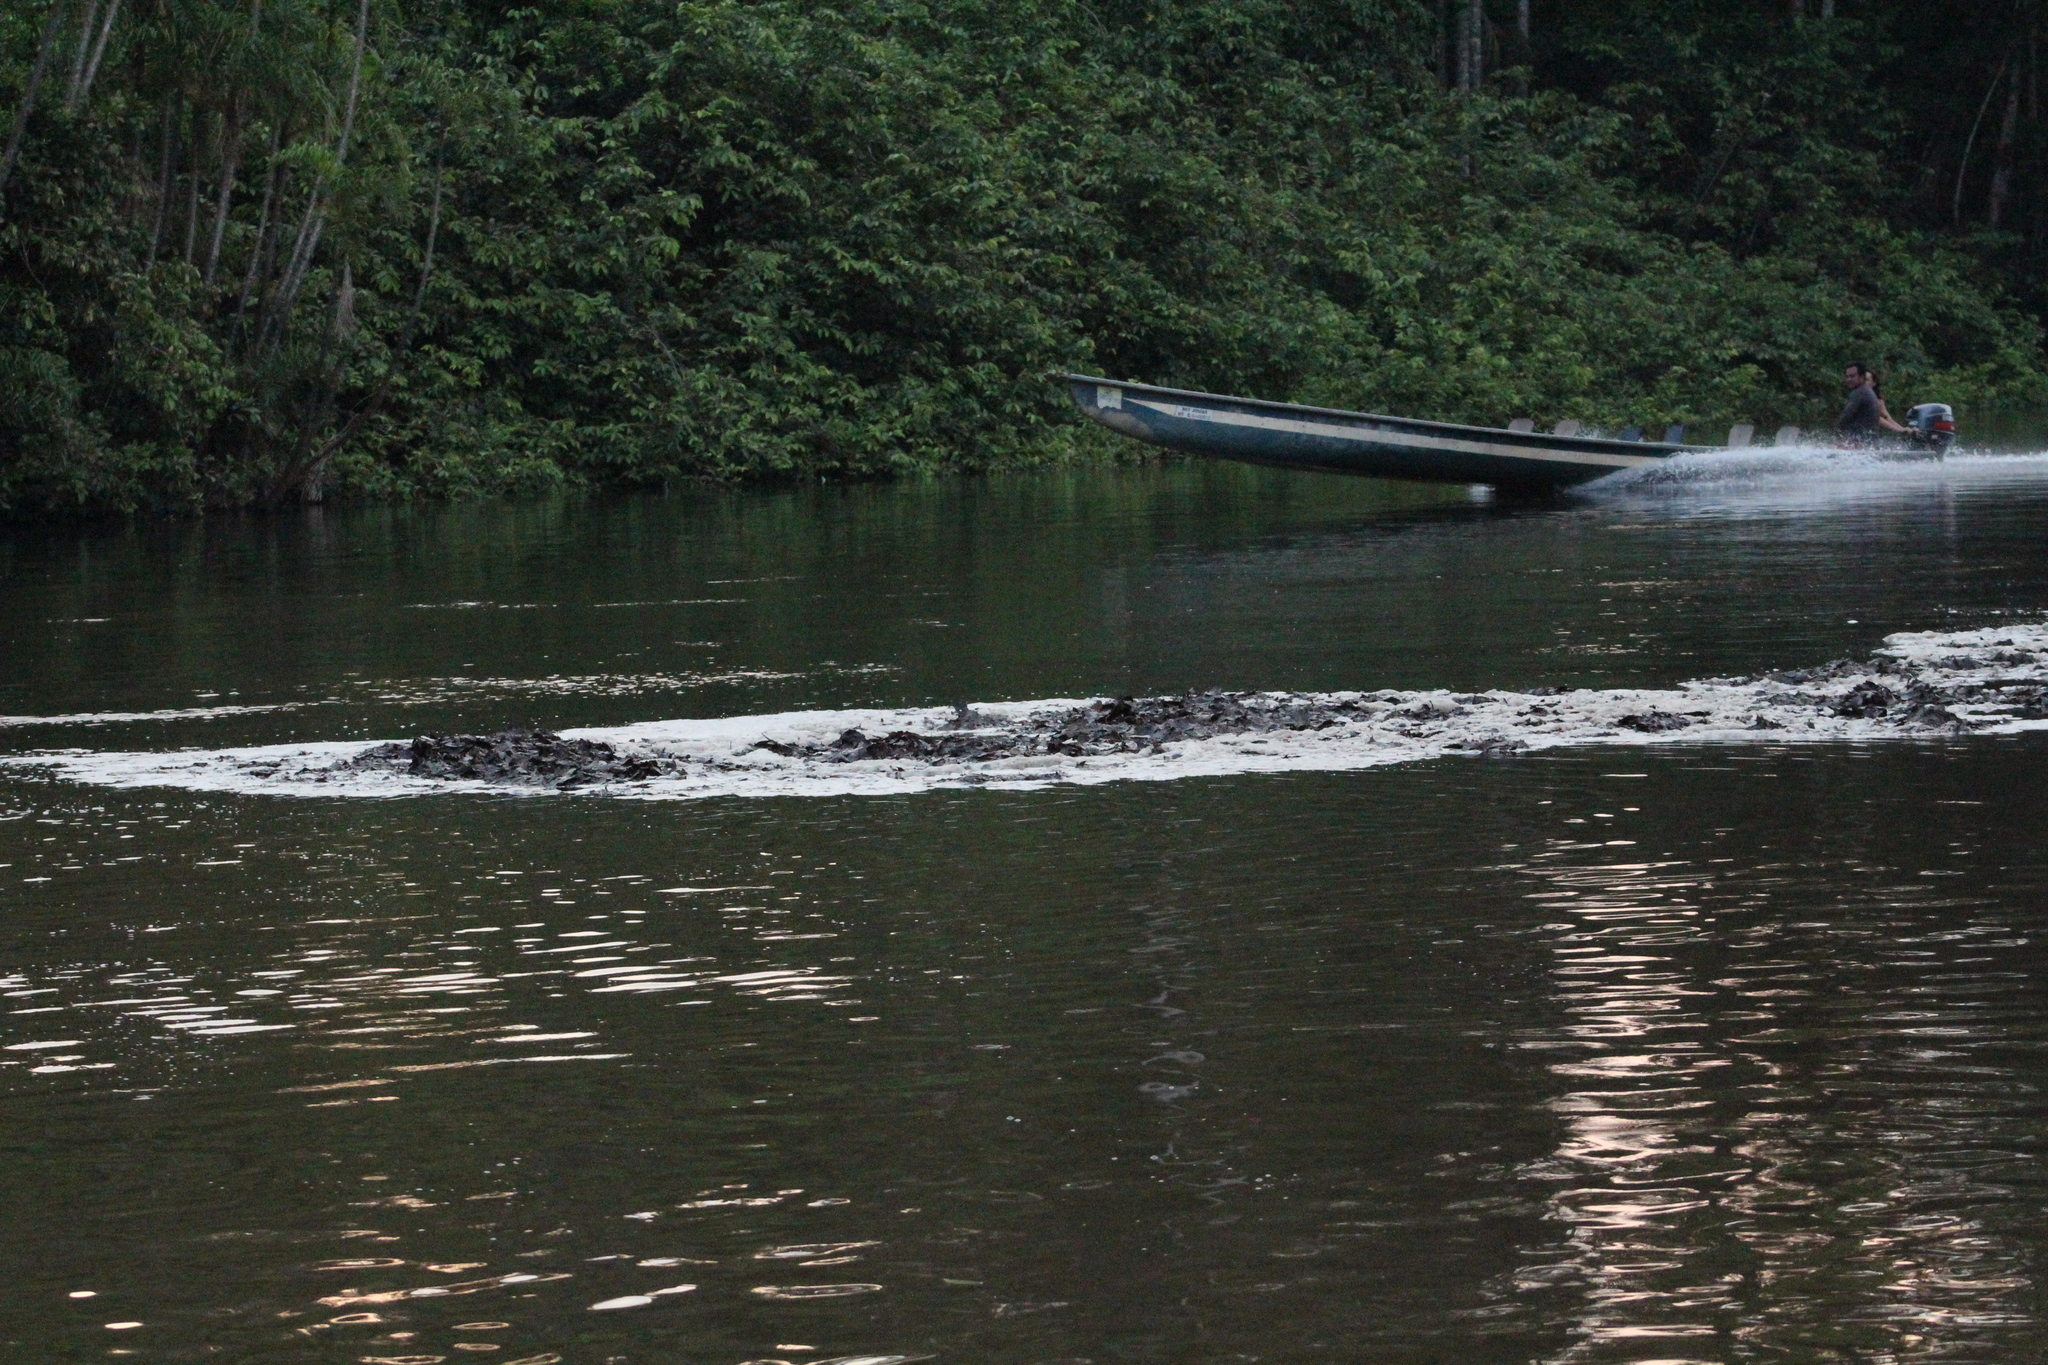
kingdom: Animalia
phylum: Chordata
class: Squamata
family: Boidae
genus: Eunectes
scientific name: Eunectes murinus
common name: Anaconda
